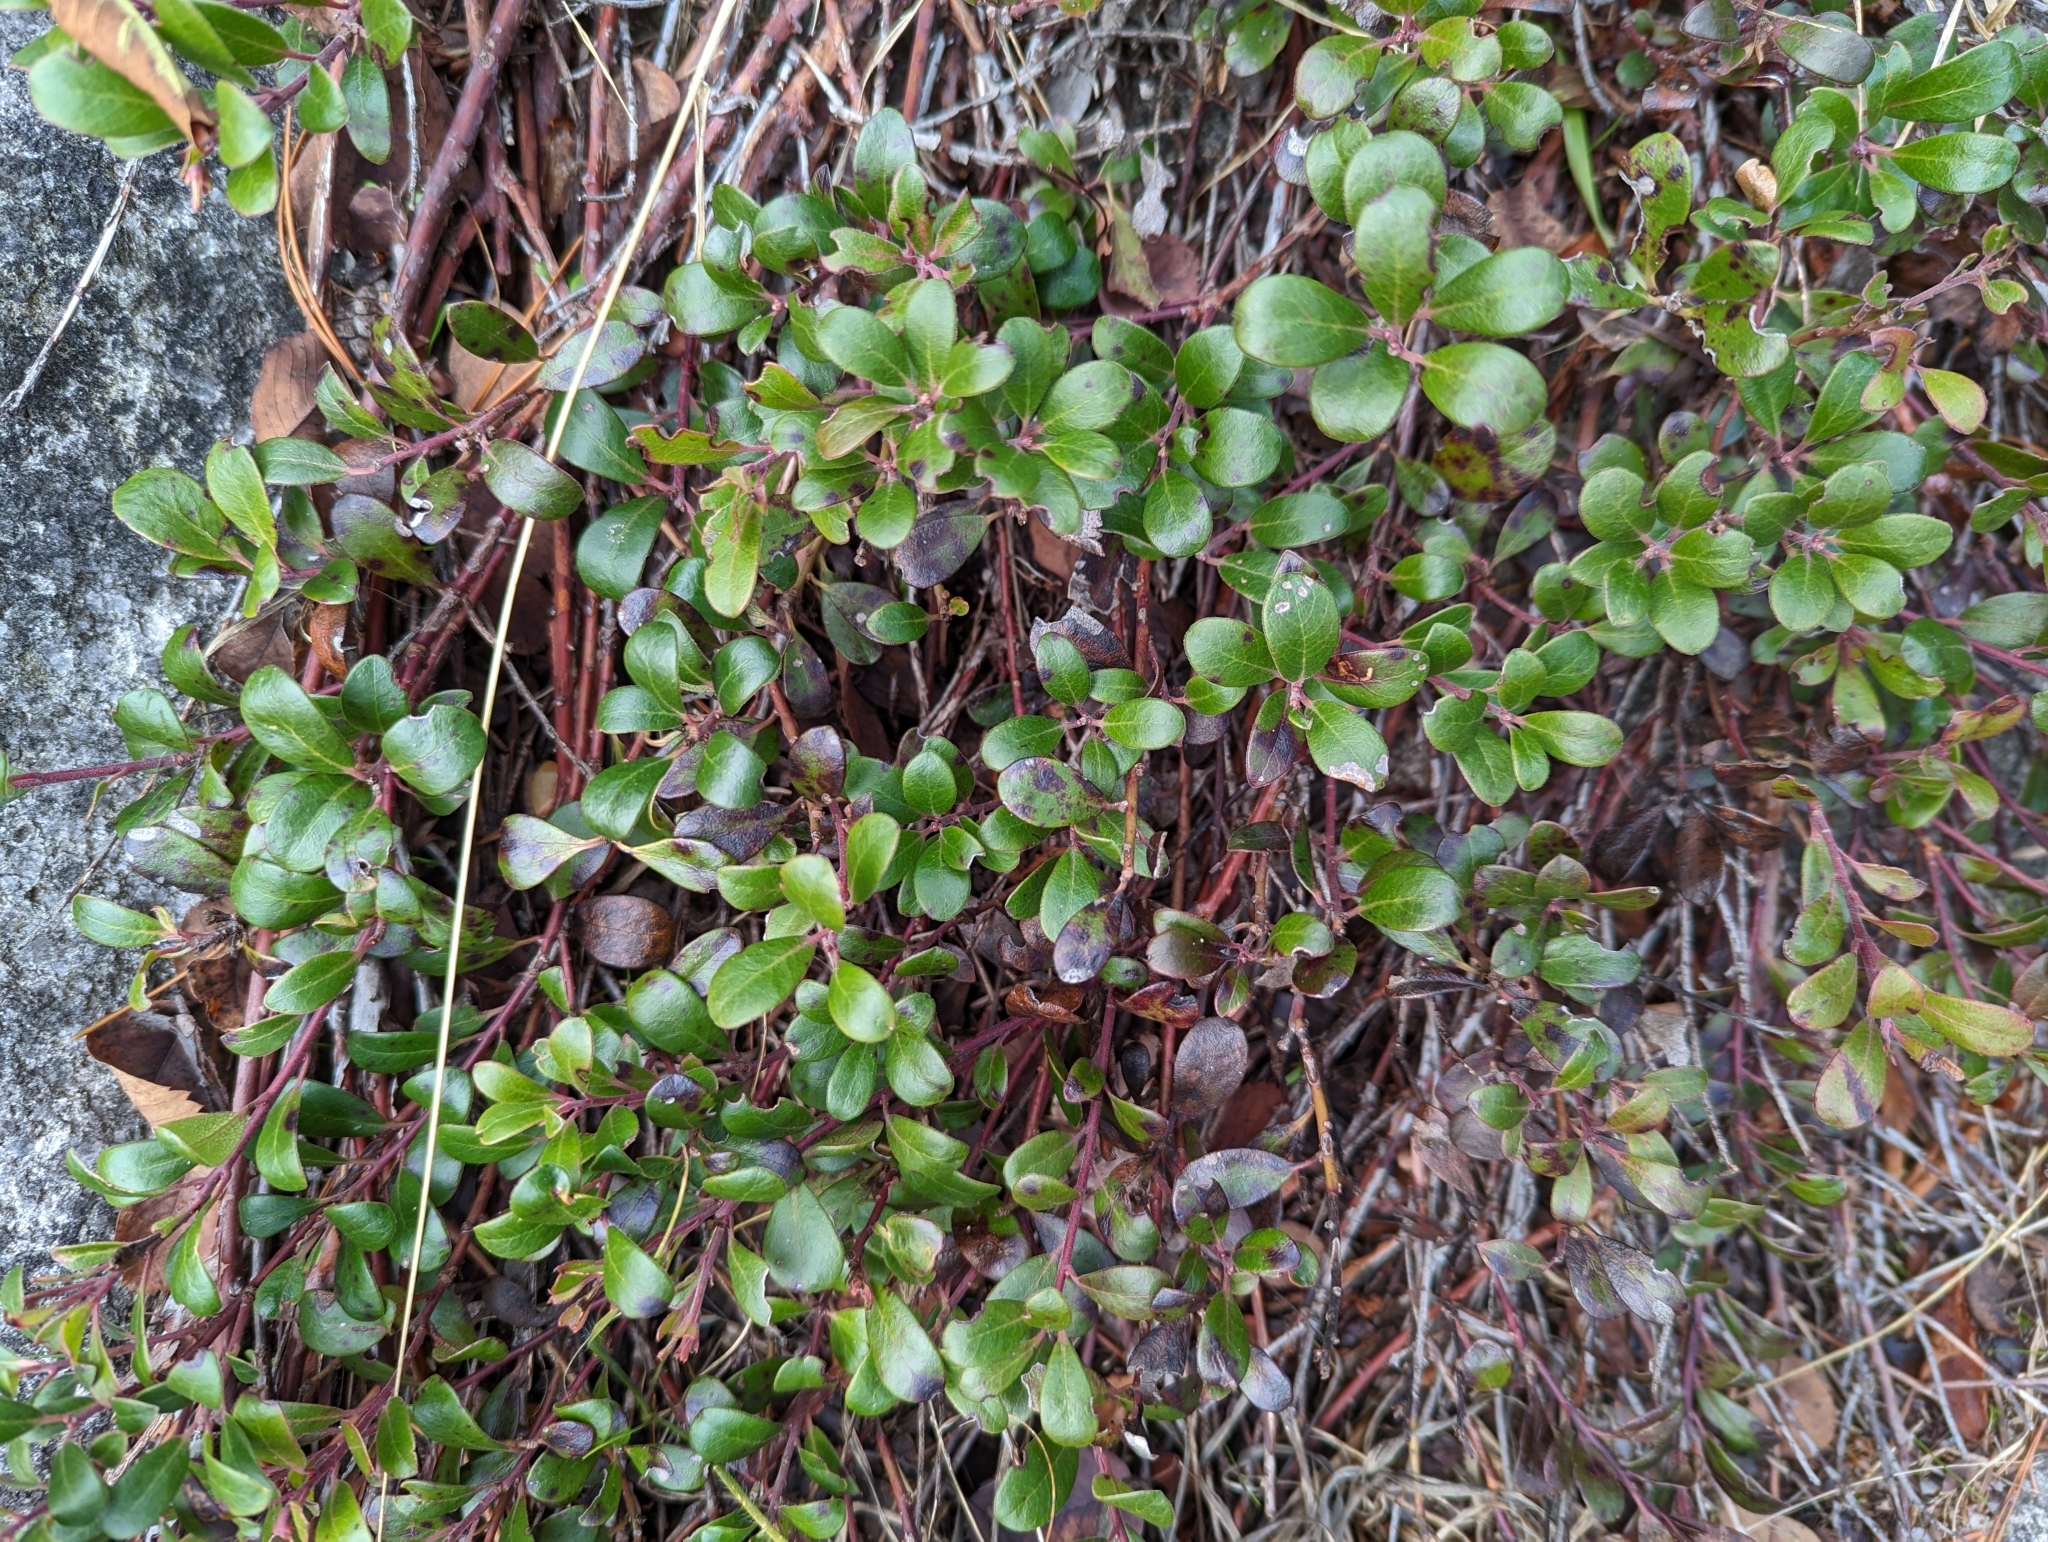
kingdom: Plantae
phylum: Tracheophyta
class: Magnoliopsida
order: Ericales
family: Ericaceae
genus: Arctostaphylos
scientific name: Arctostaphylos uva-ursi
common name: Bearberry
